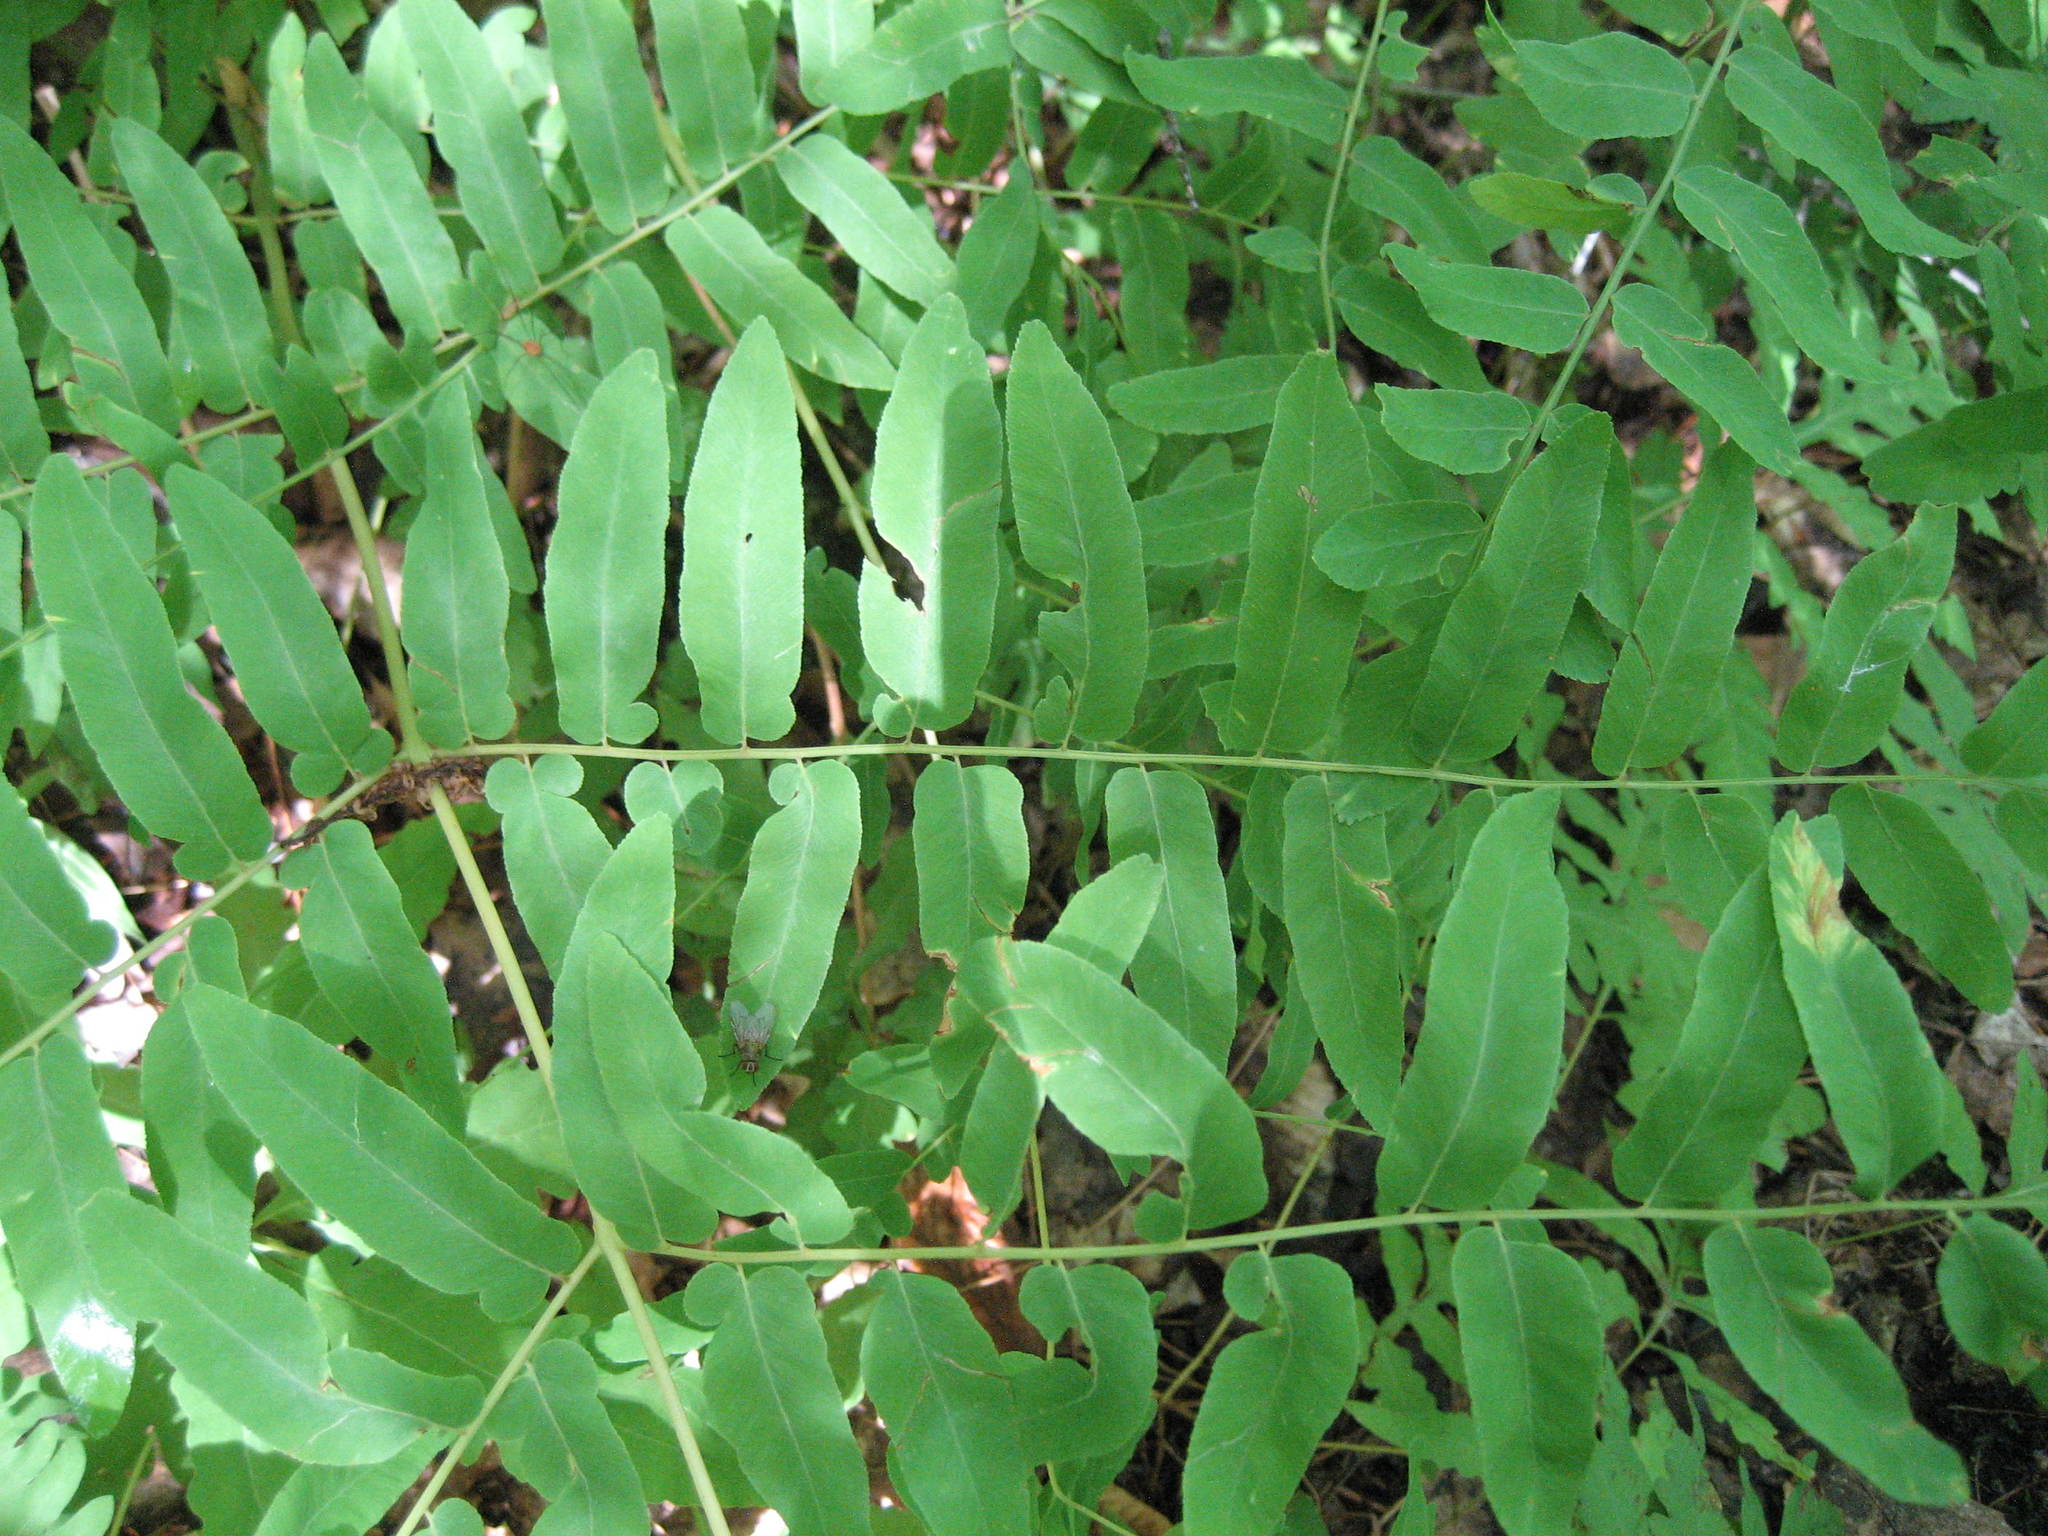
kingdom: Plantae
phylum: Tracheophyta
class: Polypodiopsida
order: Osmundales
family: Osmundaceae
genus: Osmunda
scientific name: Osmunda spectabilis
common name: American royal fern
